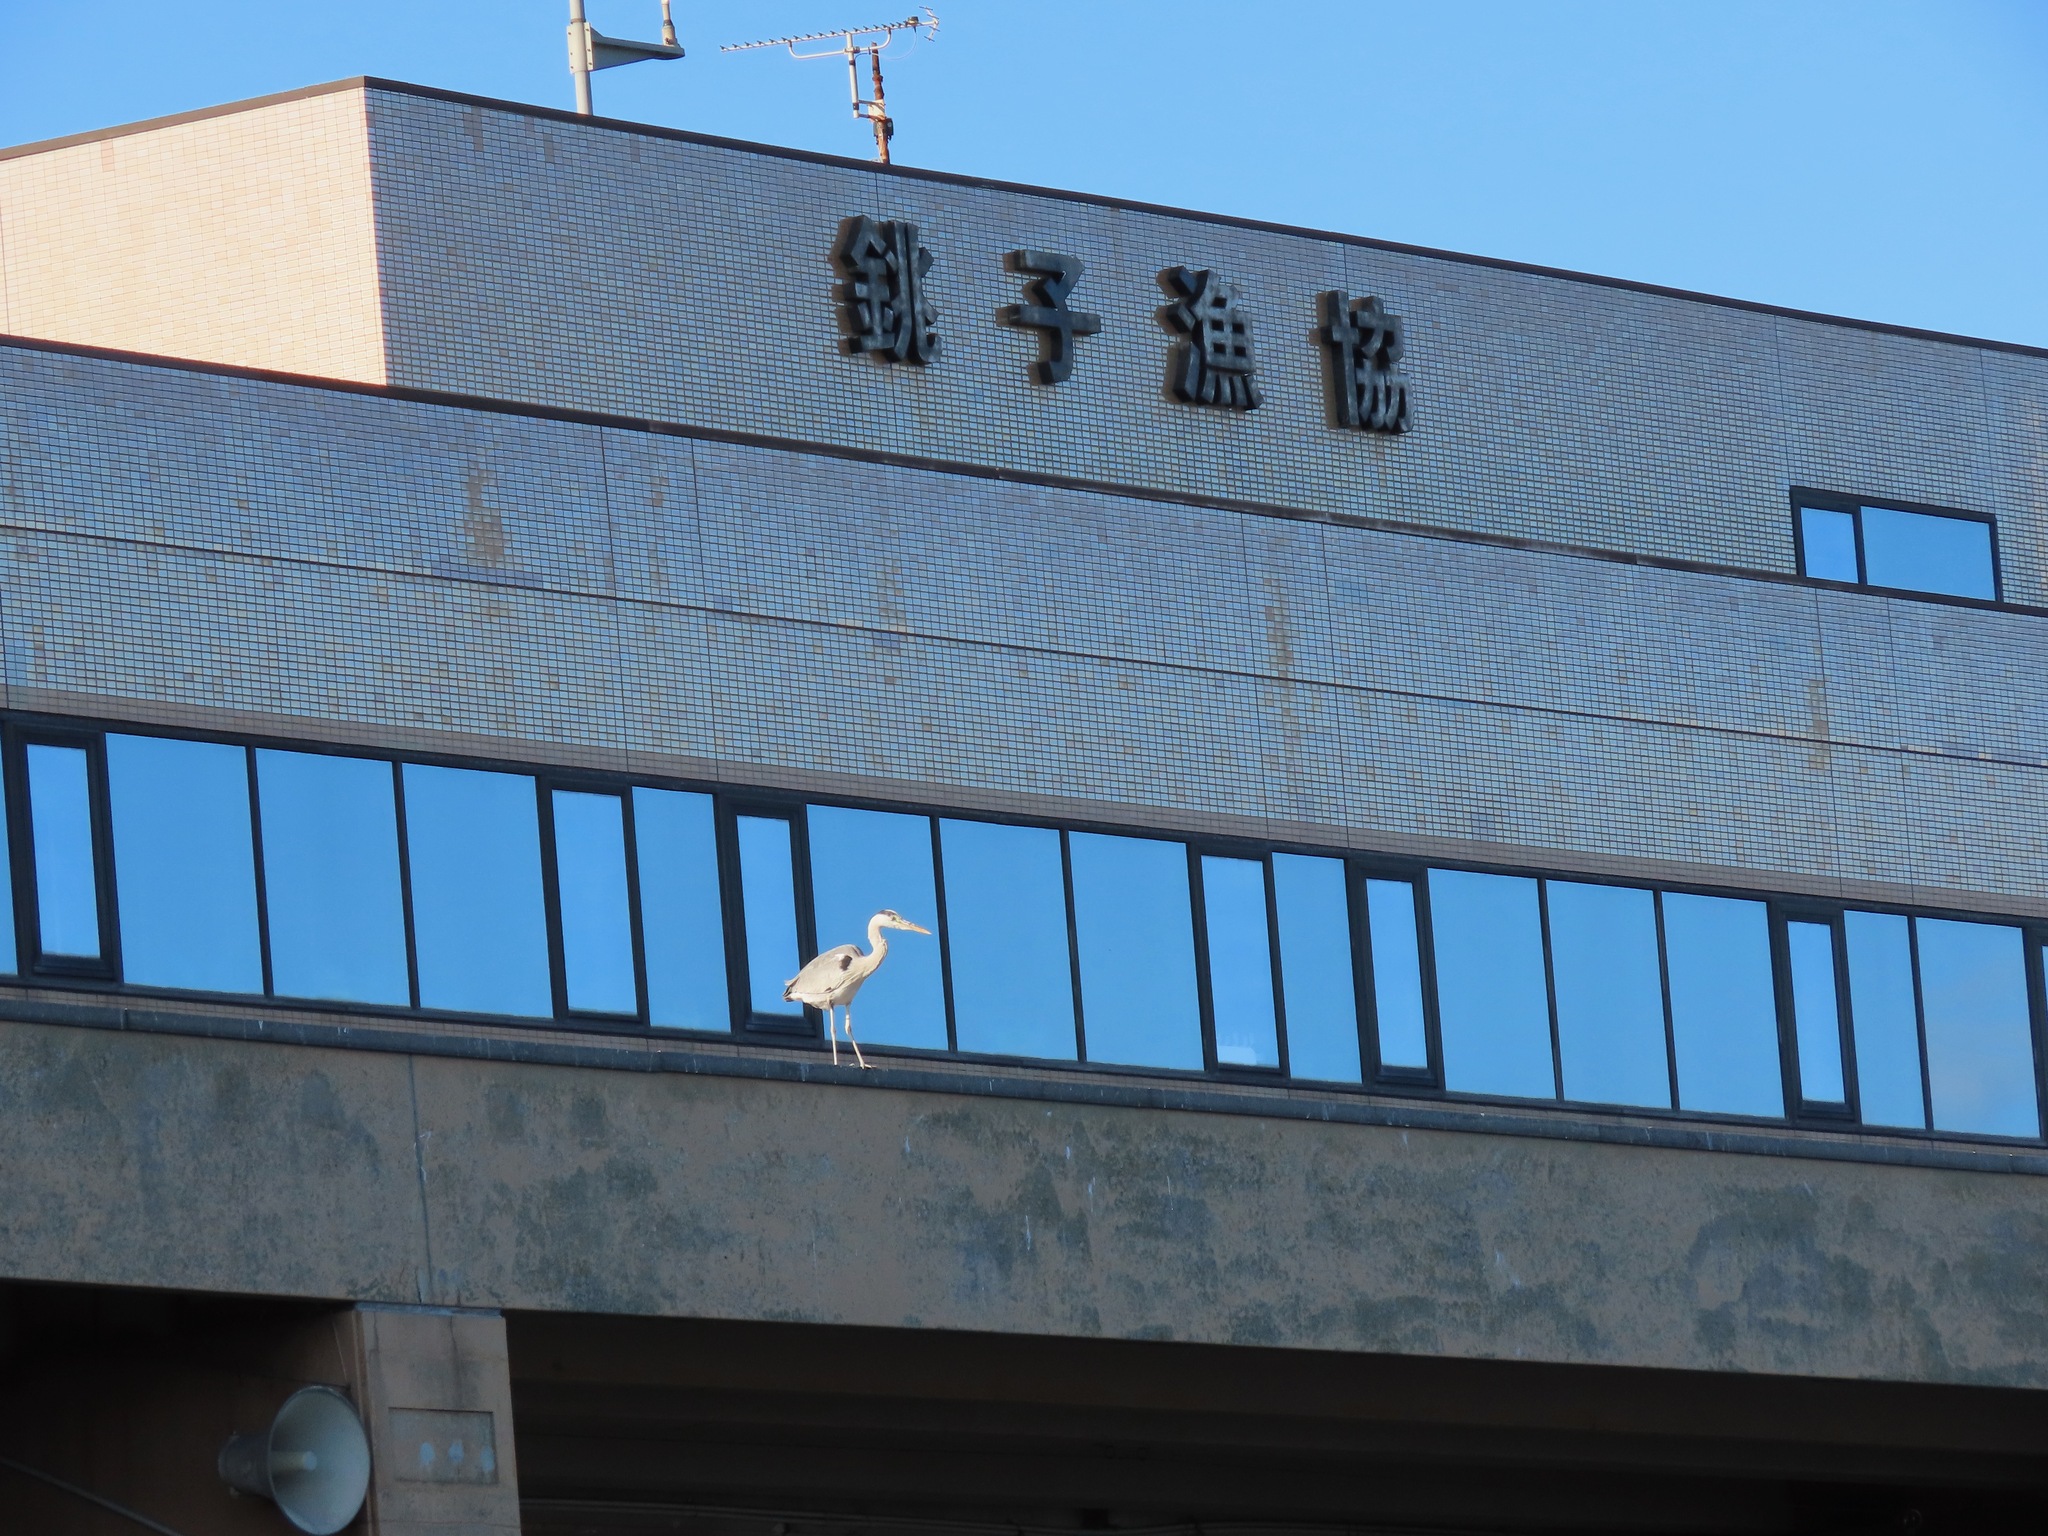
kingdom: Animalia
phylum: Chordata
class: Aves
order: Pelecaniformes
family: Ardeidae
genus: Ardea
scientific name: Ardea cinerea
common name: Grey heron
